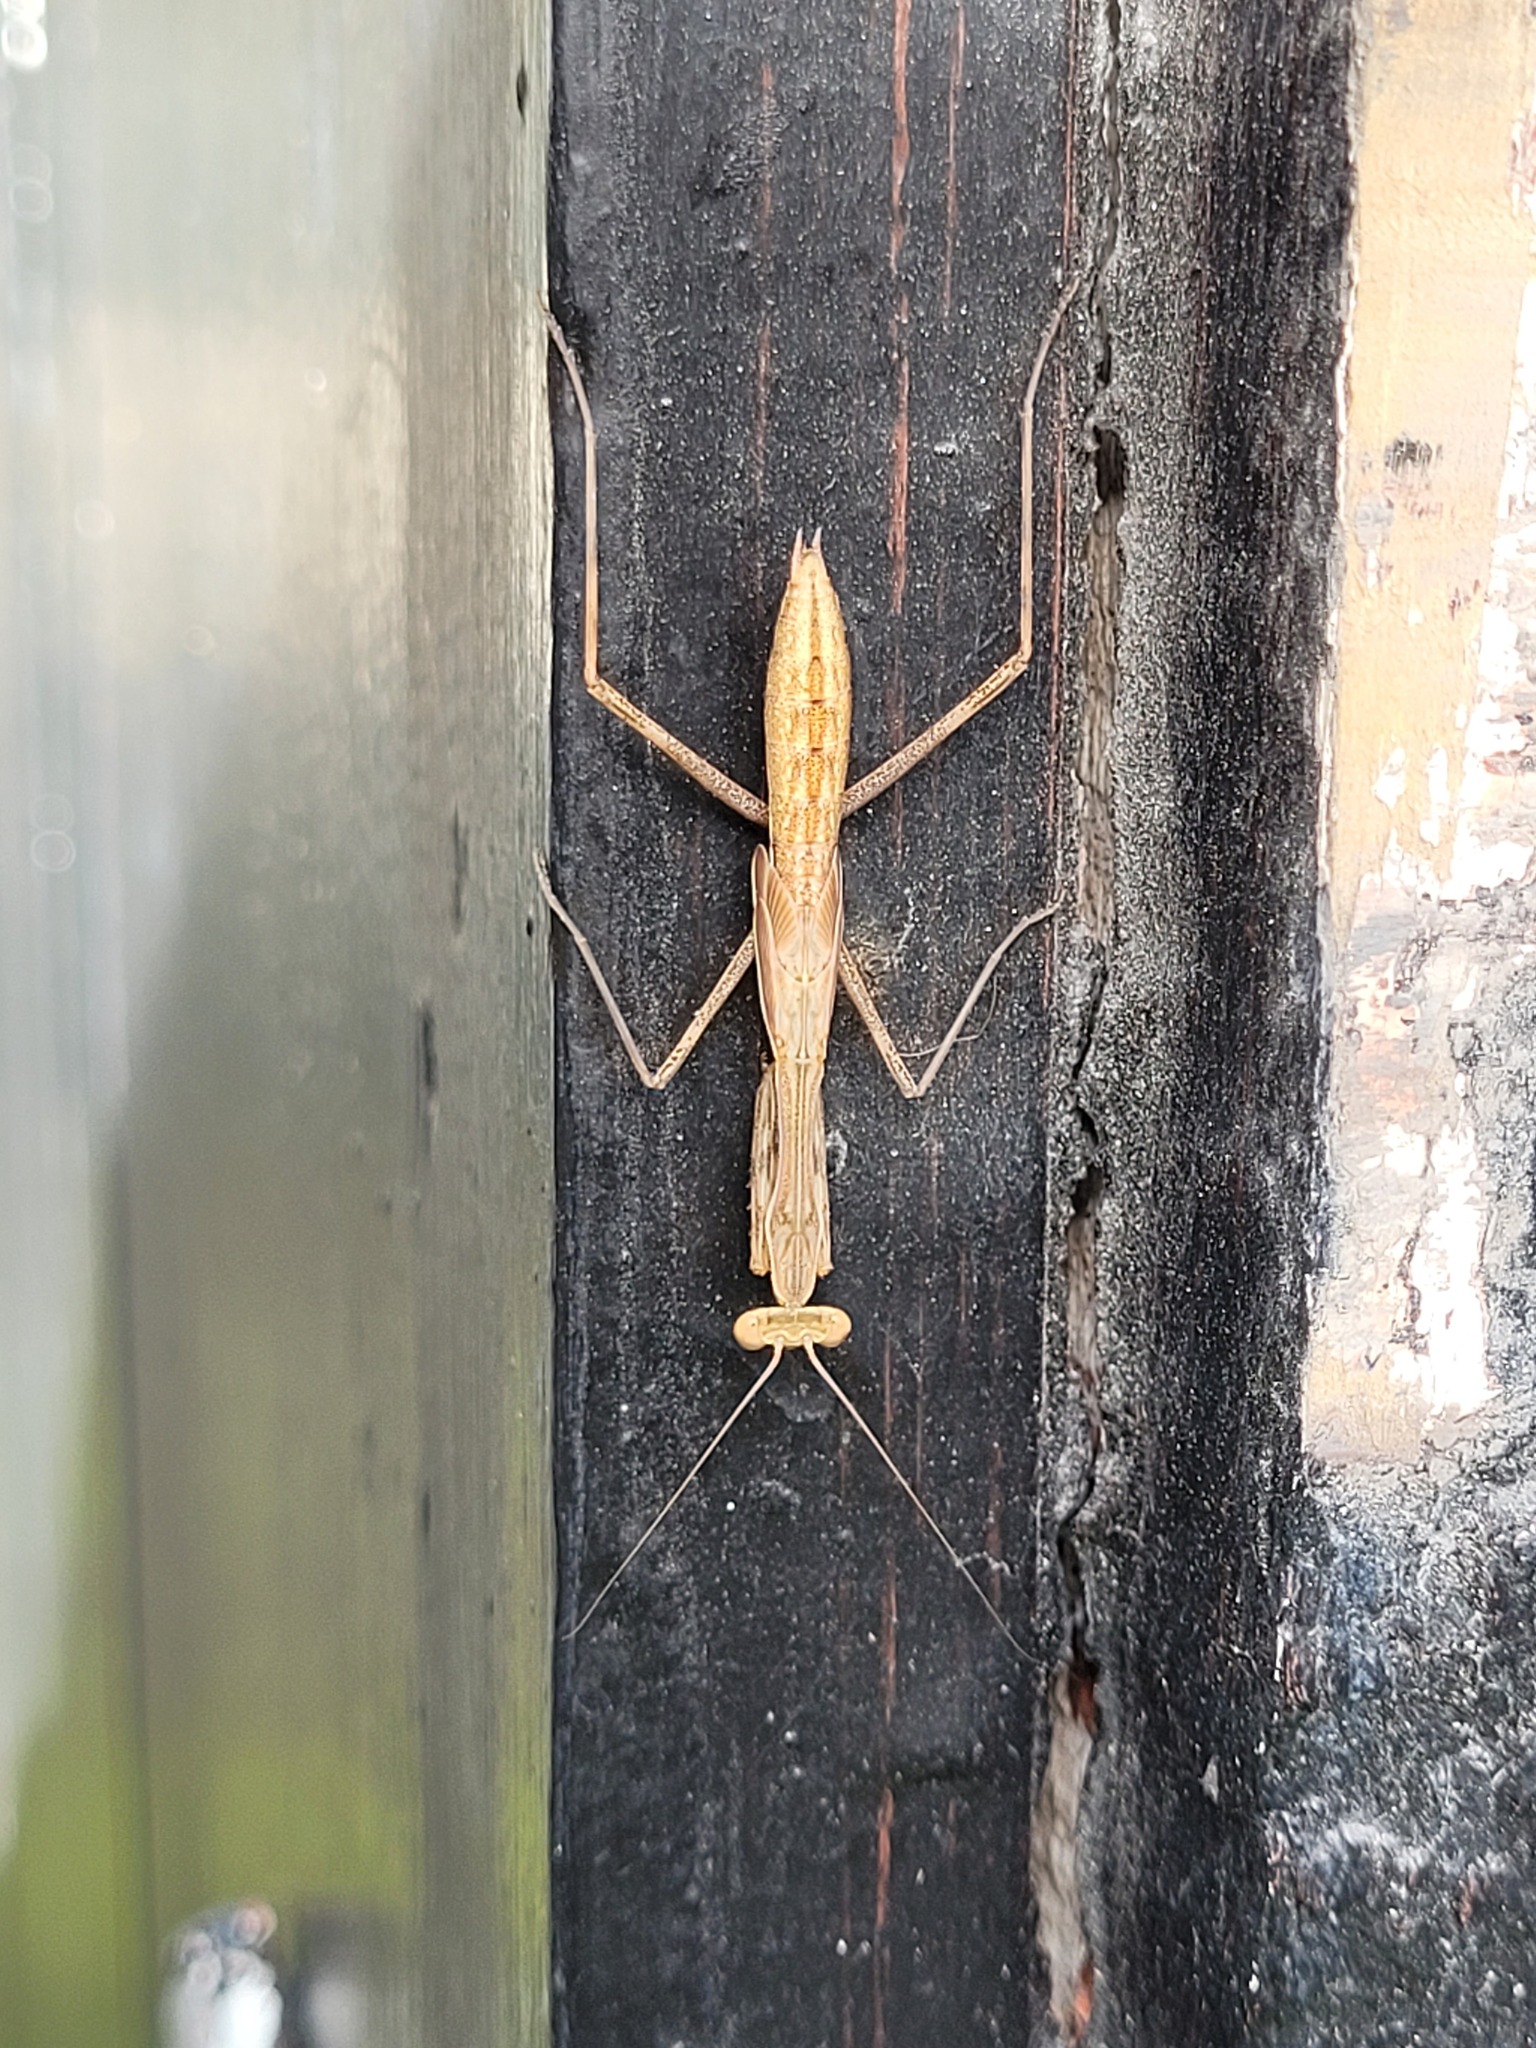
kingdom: Animalia
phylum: Arthropoda
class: Insecta
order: Mantodea
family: Miomantidae
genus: Miomantis
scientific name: Miomantis caffra
